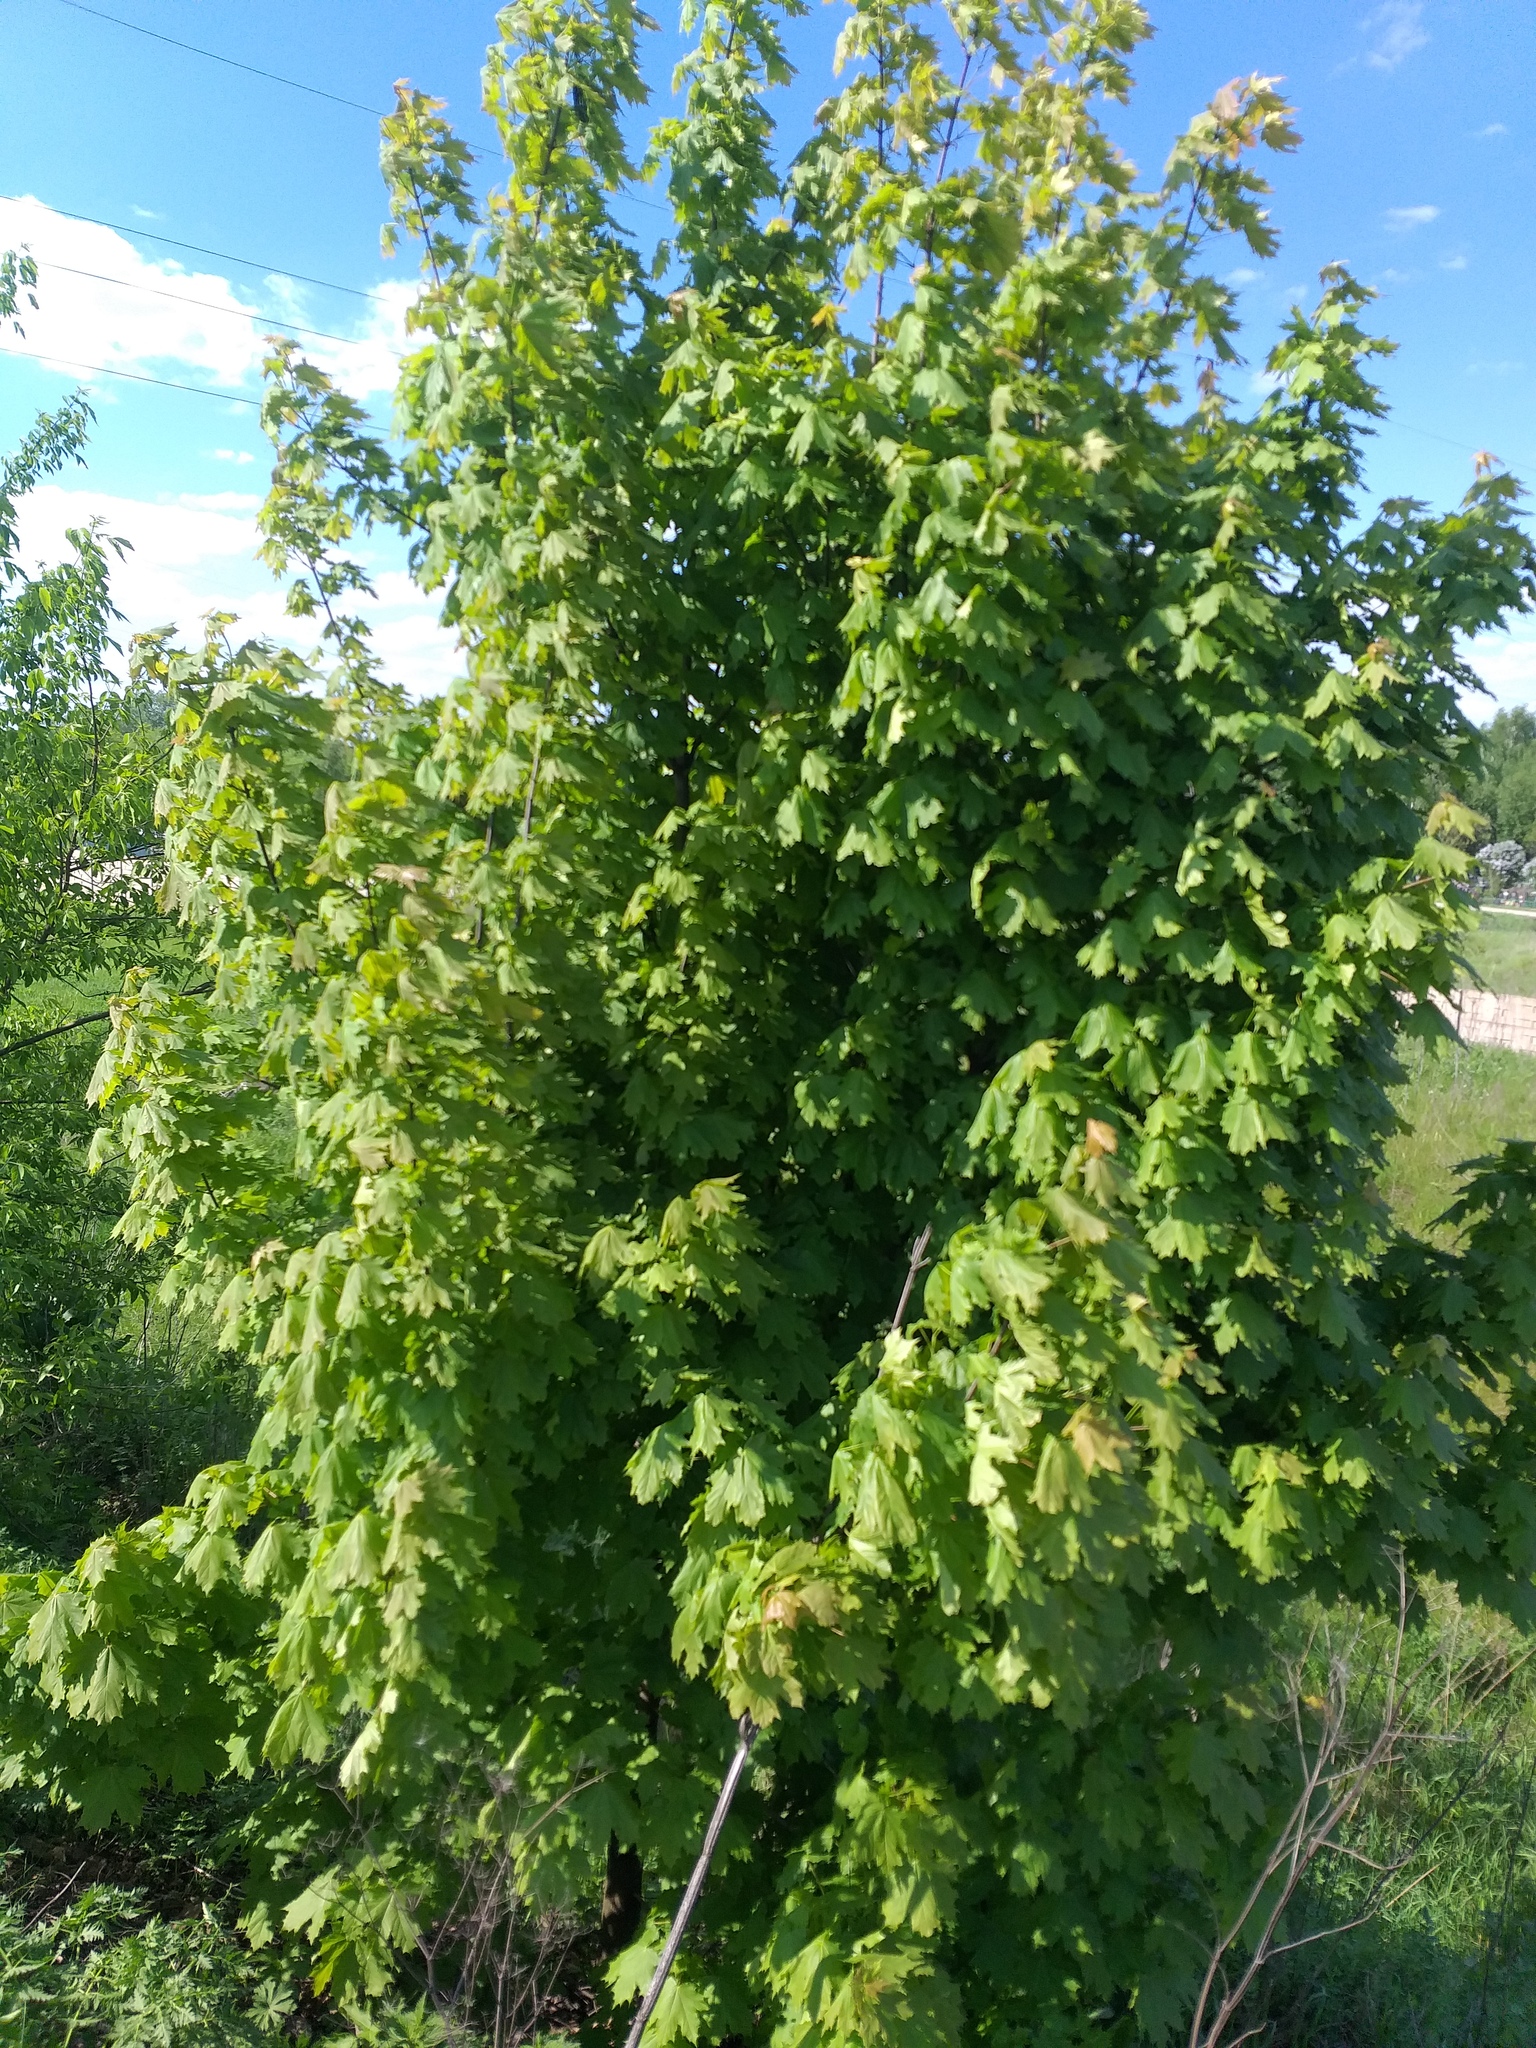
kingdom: Plantae
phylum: Tracheophyta
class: Magnoliopsida
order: Sapindales
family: Sapindaceae
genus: Acer
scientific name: Acer platanoides
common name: Norway maple
